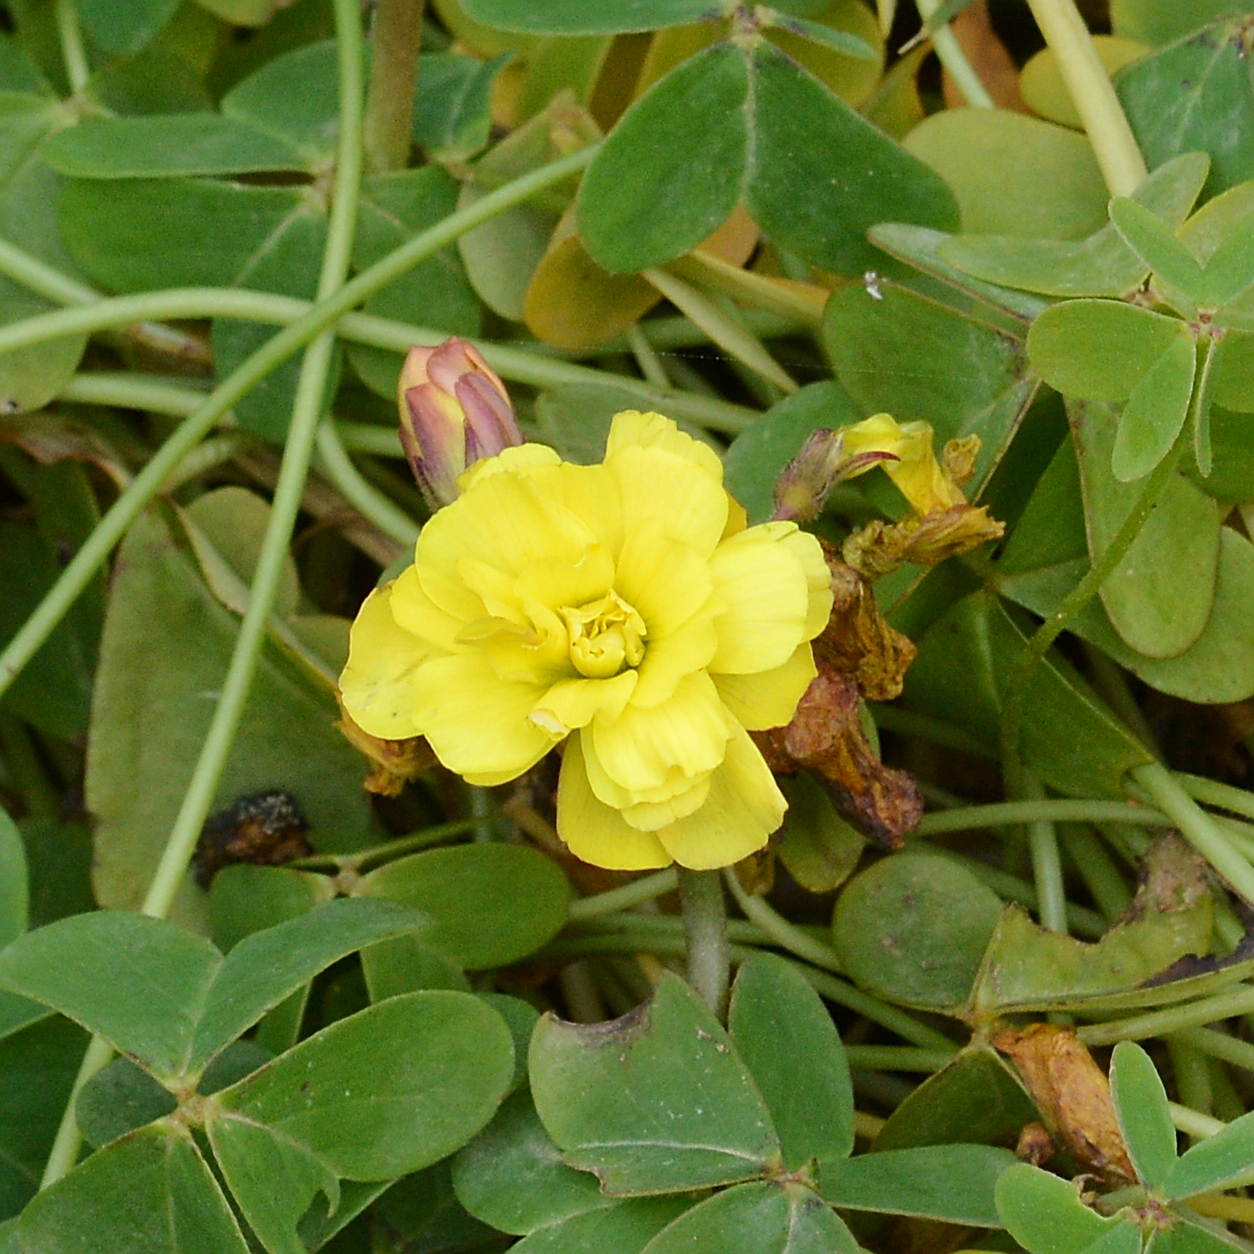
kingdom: Plantae
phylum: Tracheophyta
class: Magnoliopsida
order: Oxalidales
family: Oxalidaceae
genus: Oxalis
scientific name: Oxalis pes-caprae
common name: Bermuda-buttercup
